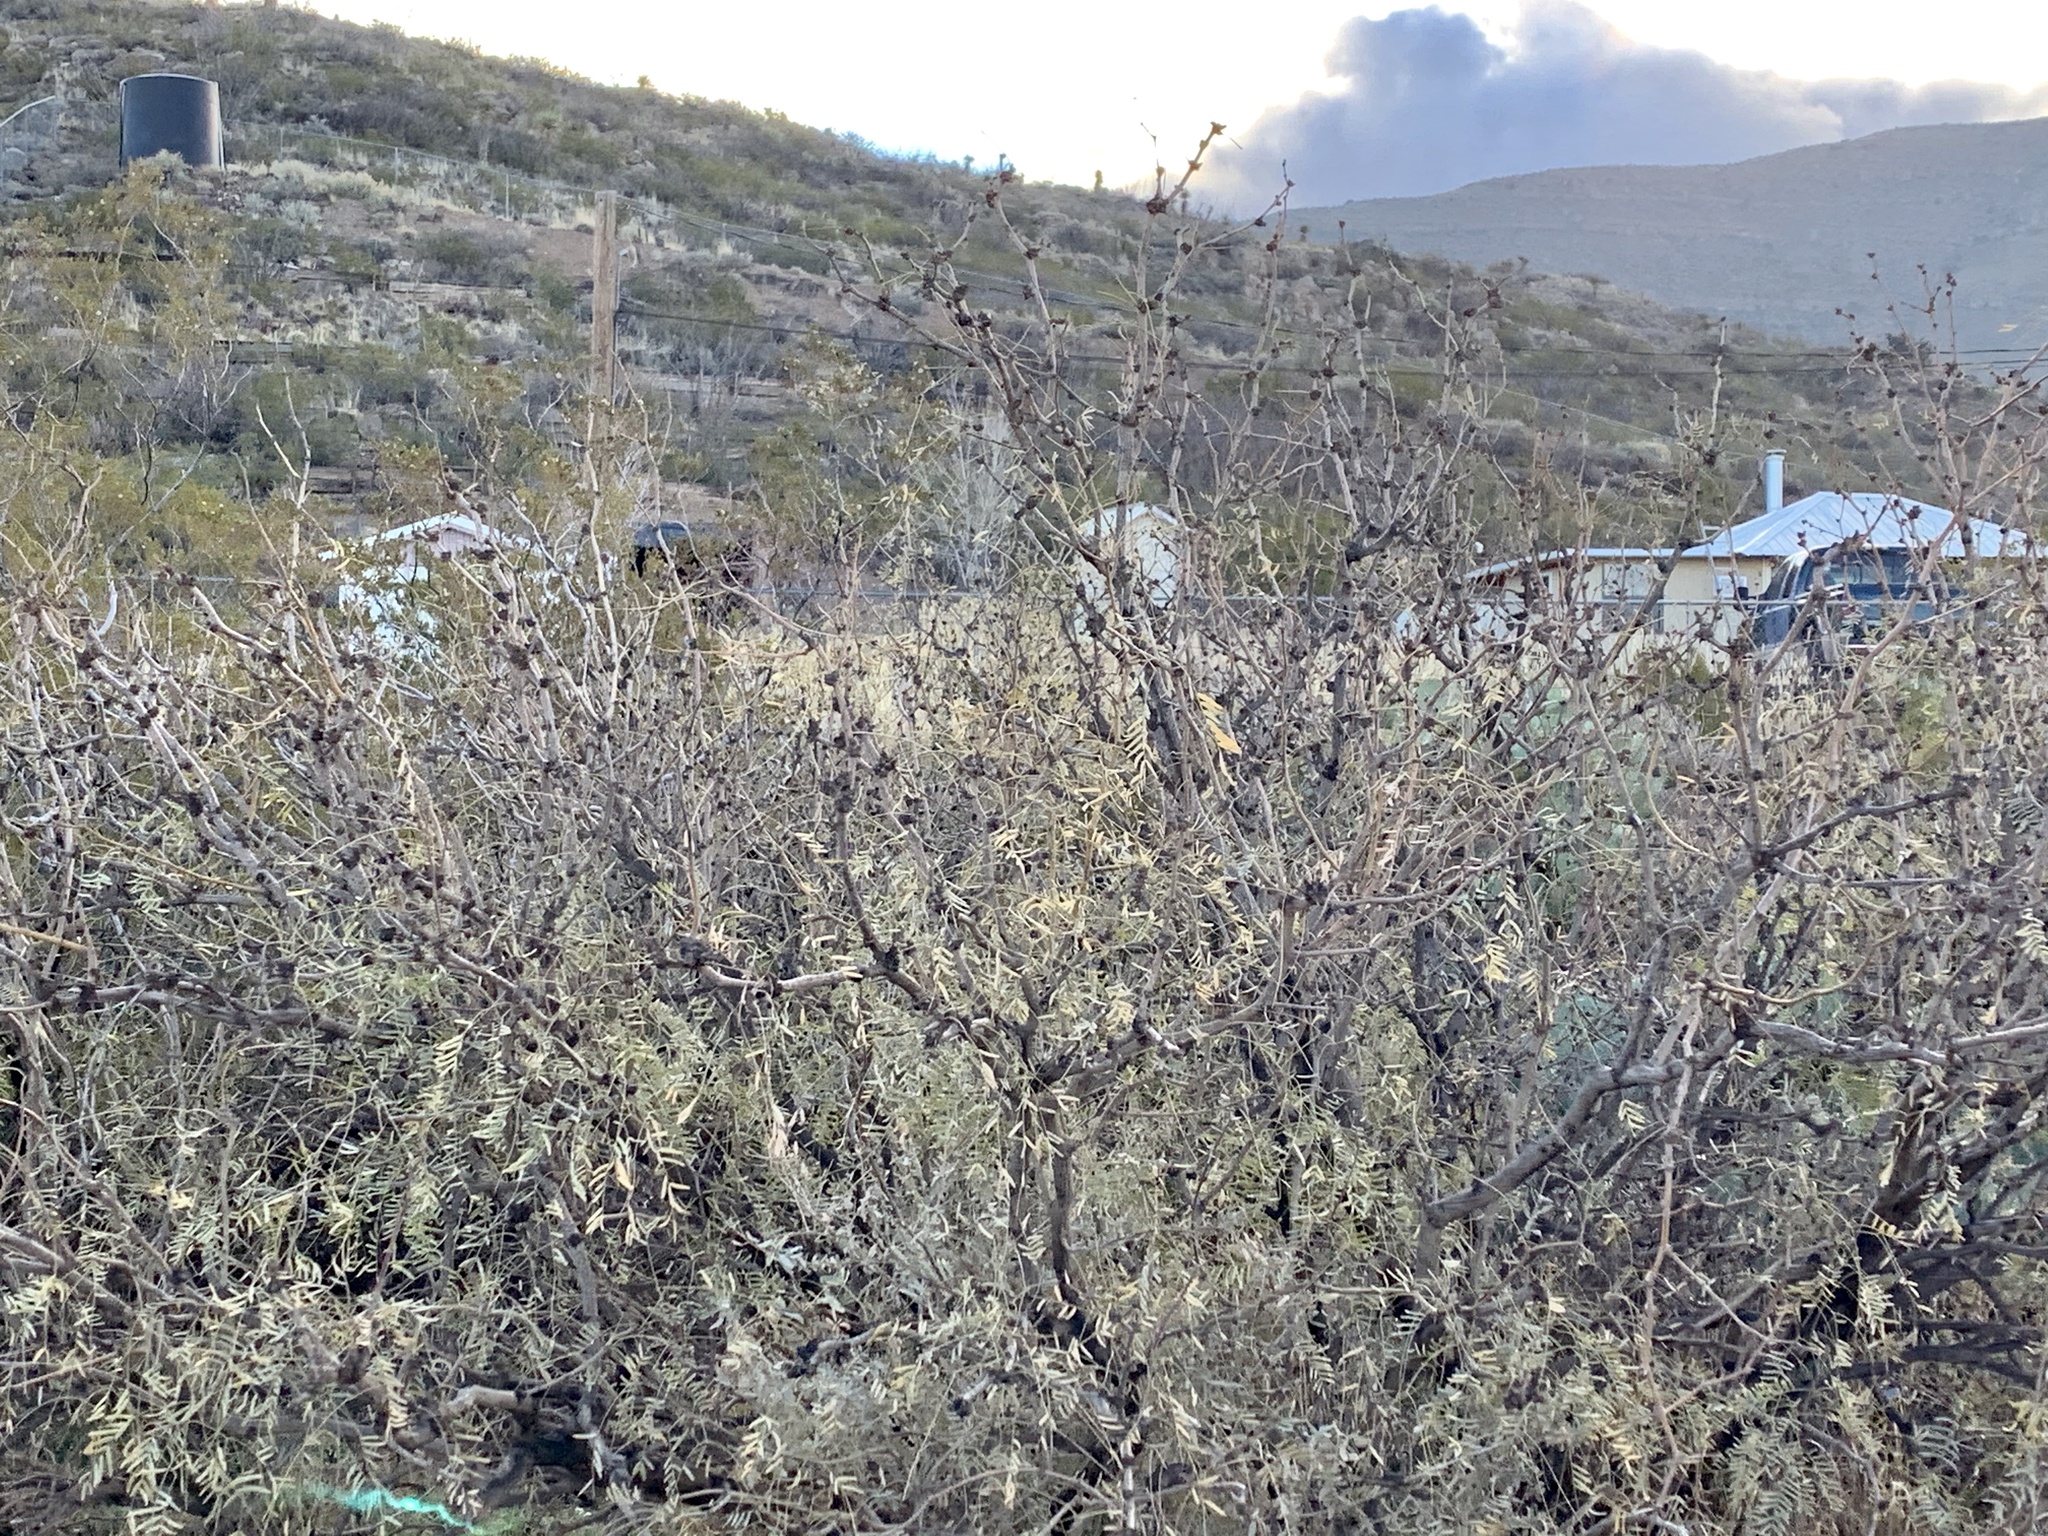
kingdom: Plantae
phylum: Tracheophyta
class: Magnoliopsida
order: Fabales
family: Fabaceae
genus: Prosopis
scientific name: Prosopis glandulosa
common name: Honey mesquite
